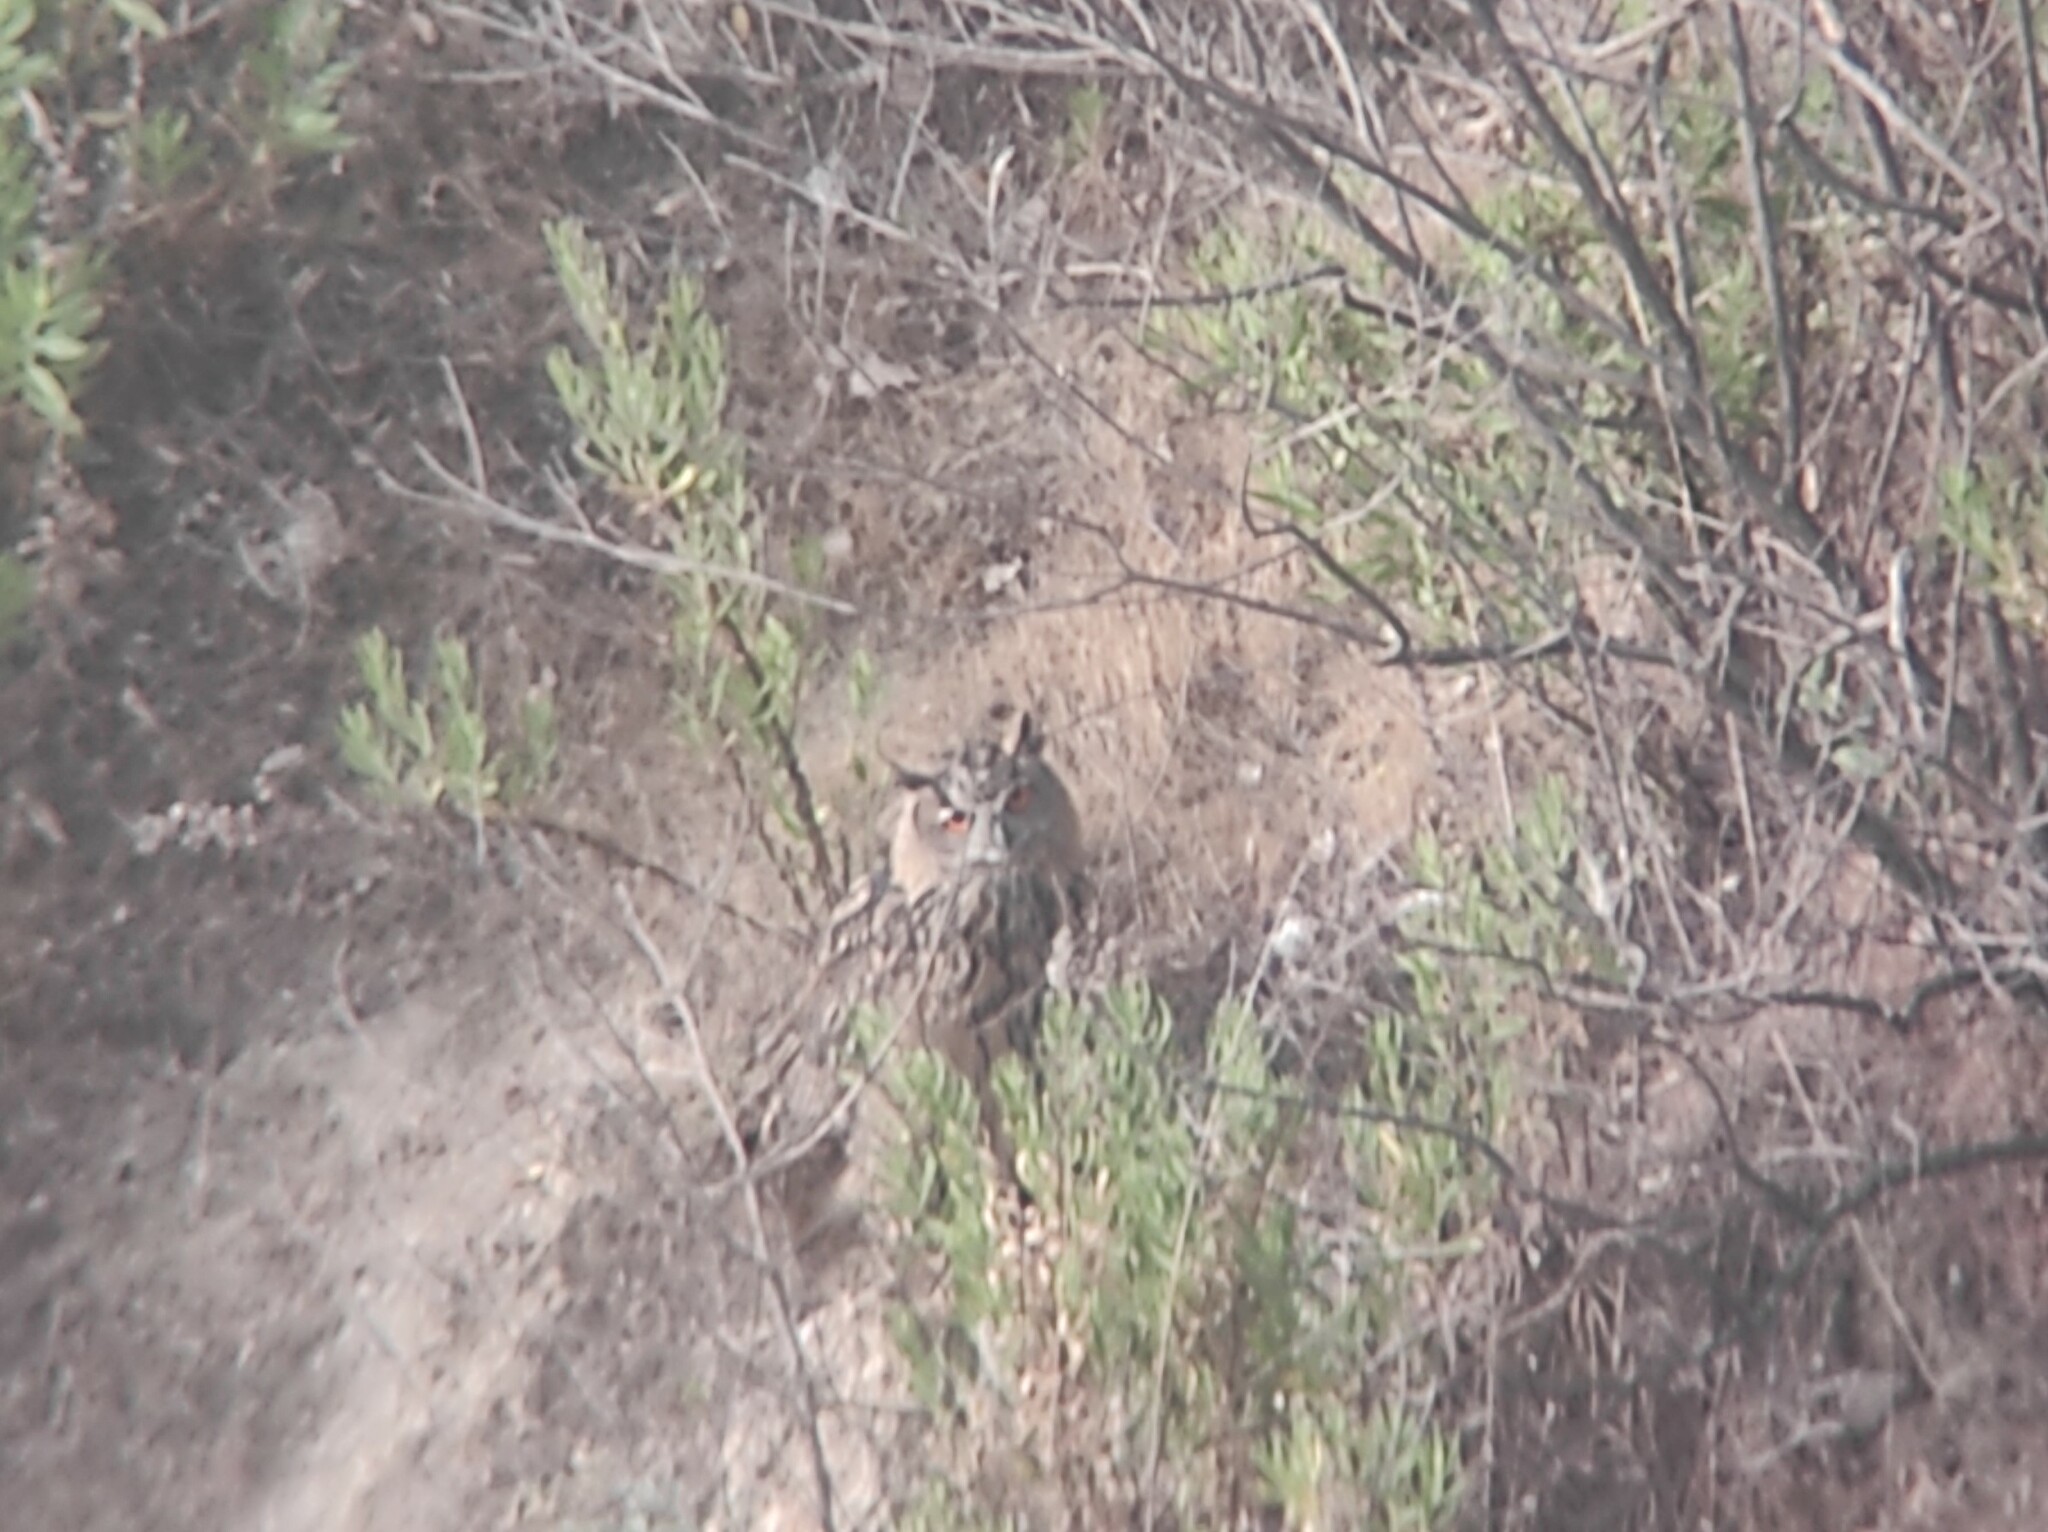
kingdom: Animalia
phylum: Chordata
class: Aves
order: Strigiformes
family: Strigidae
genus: Bubo
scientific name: Bubo bubo
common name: Eurasian eagle-owl
